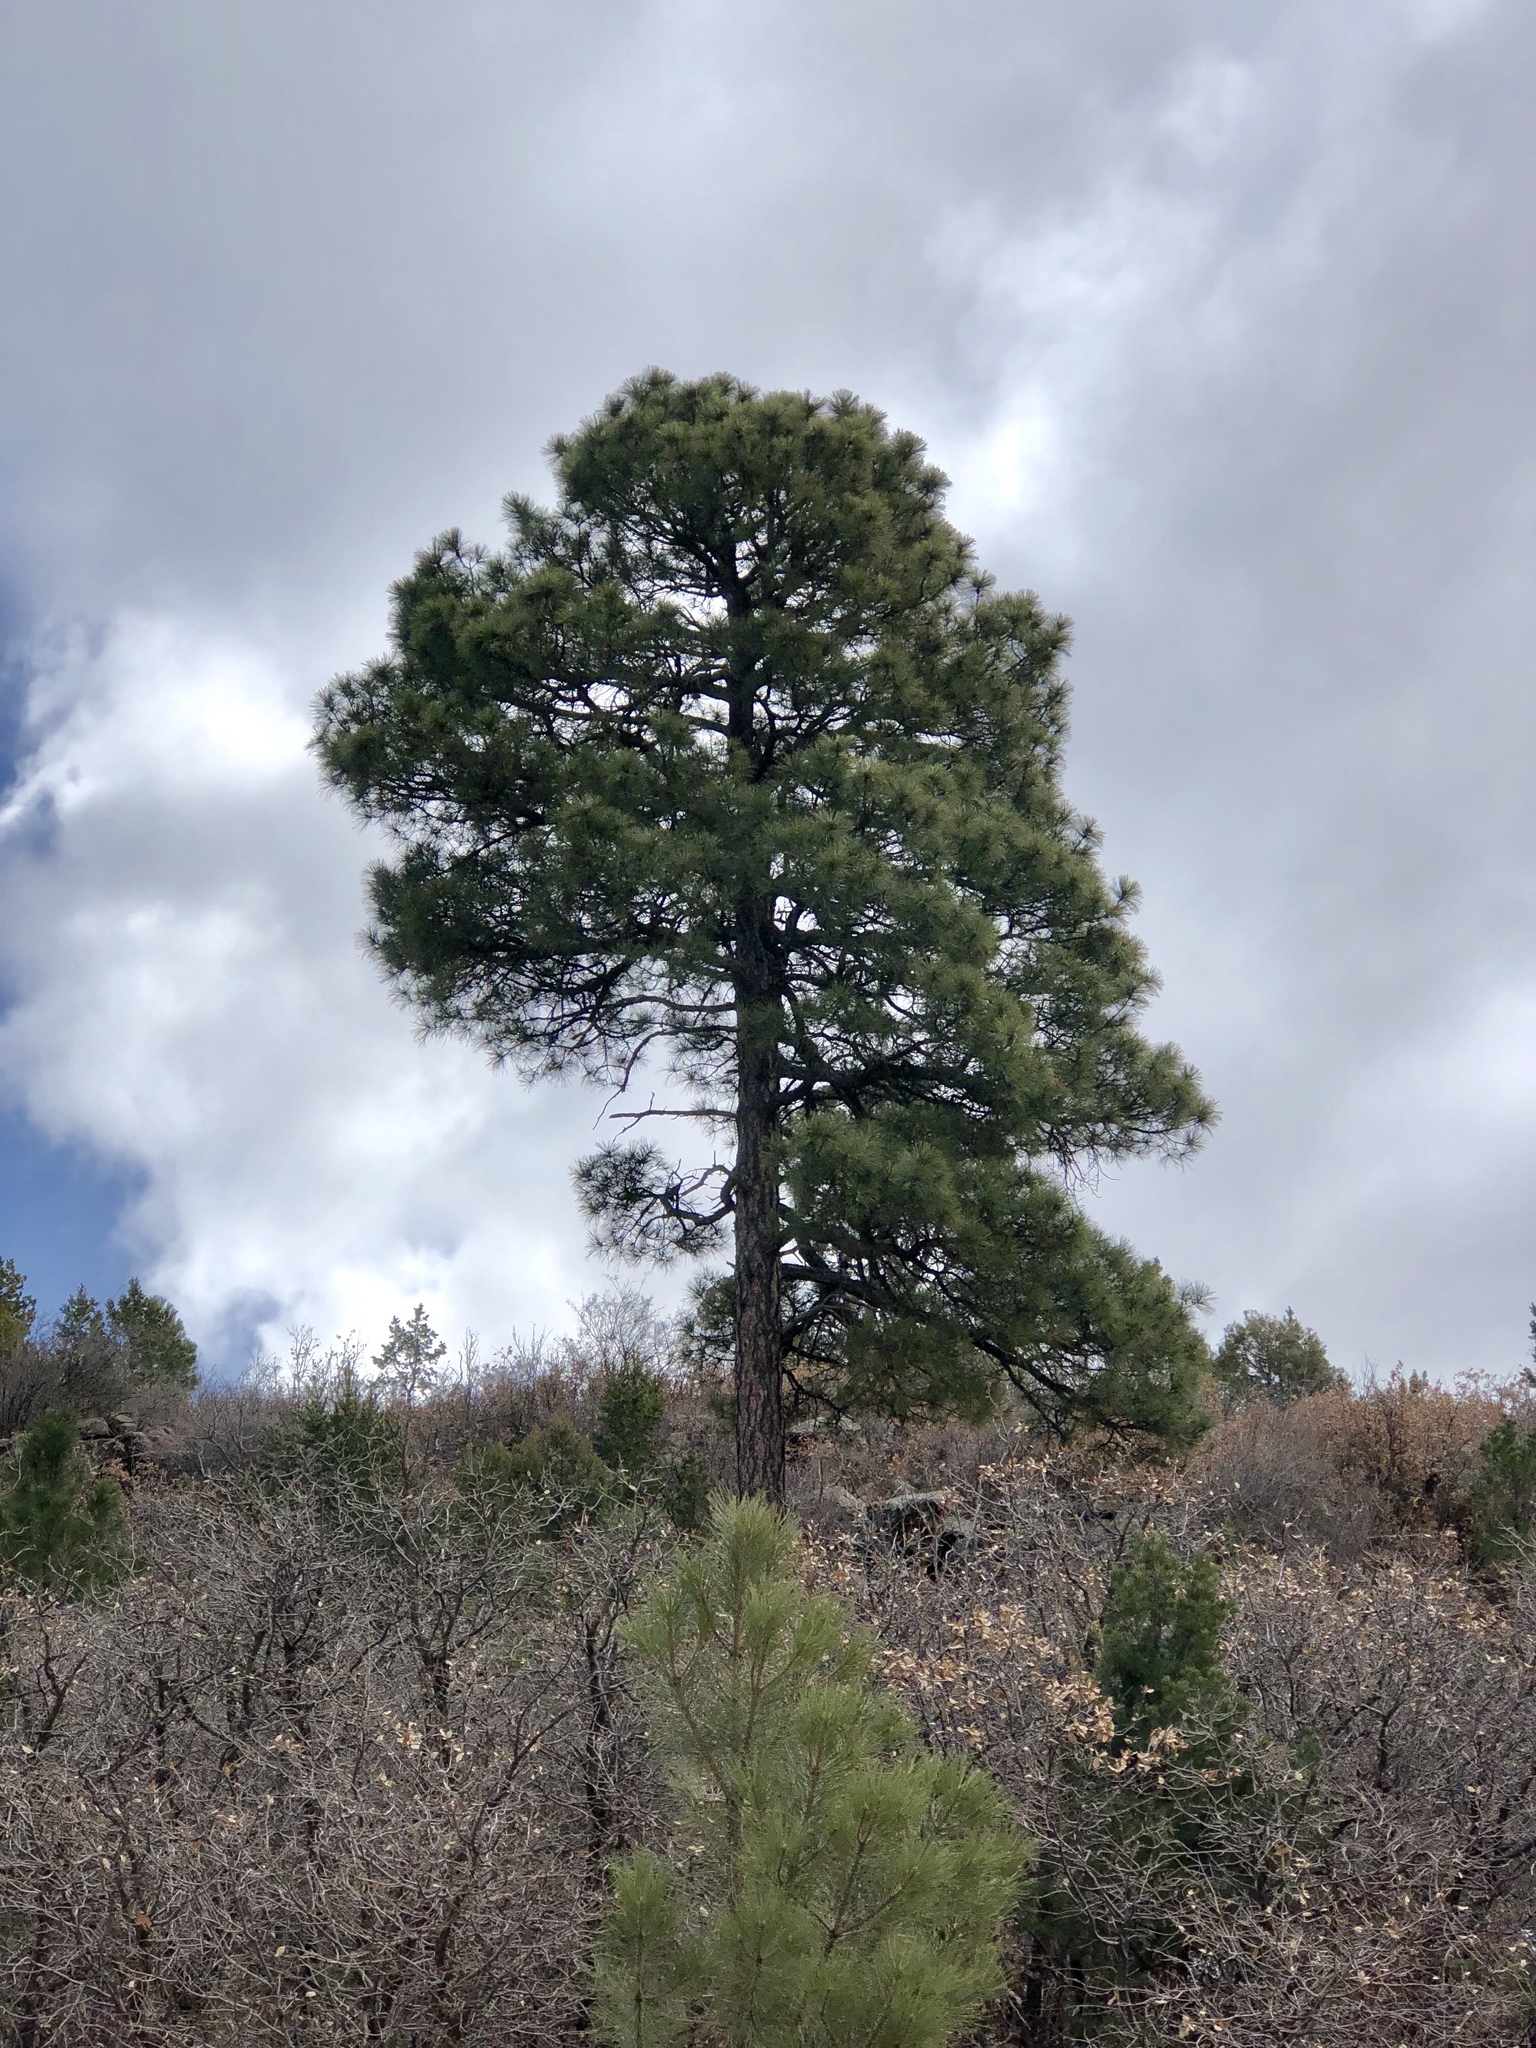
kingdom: Plantae
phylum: Tracheophyta
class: Pinopsida
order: Pinales
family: Pinaceae
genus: Pinus
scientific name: Pinus ponderosa
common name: Western yellow-pine
